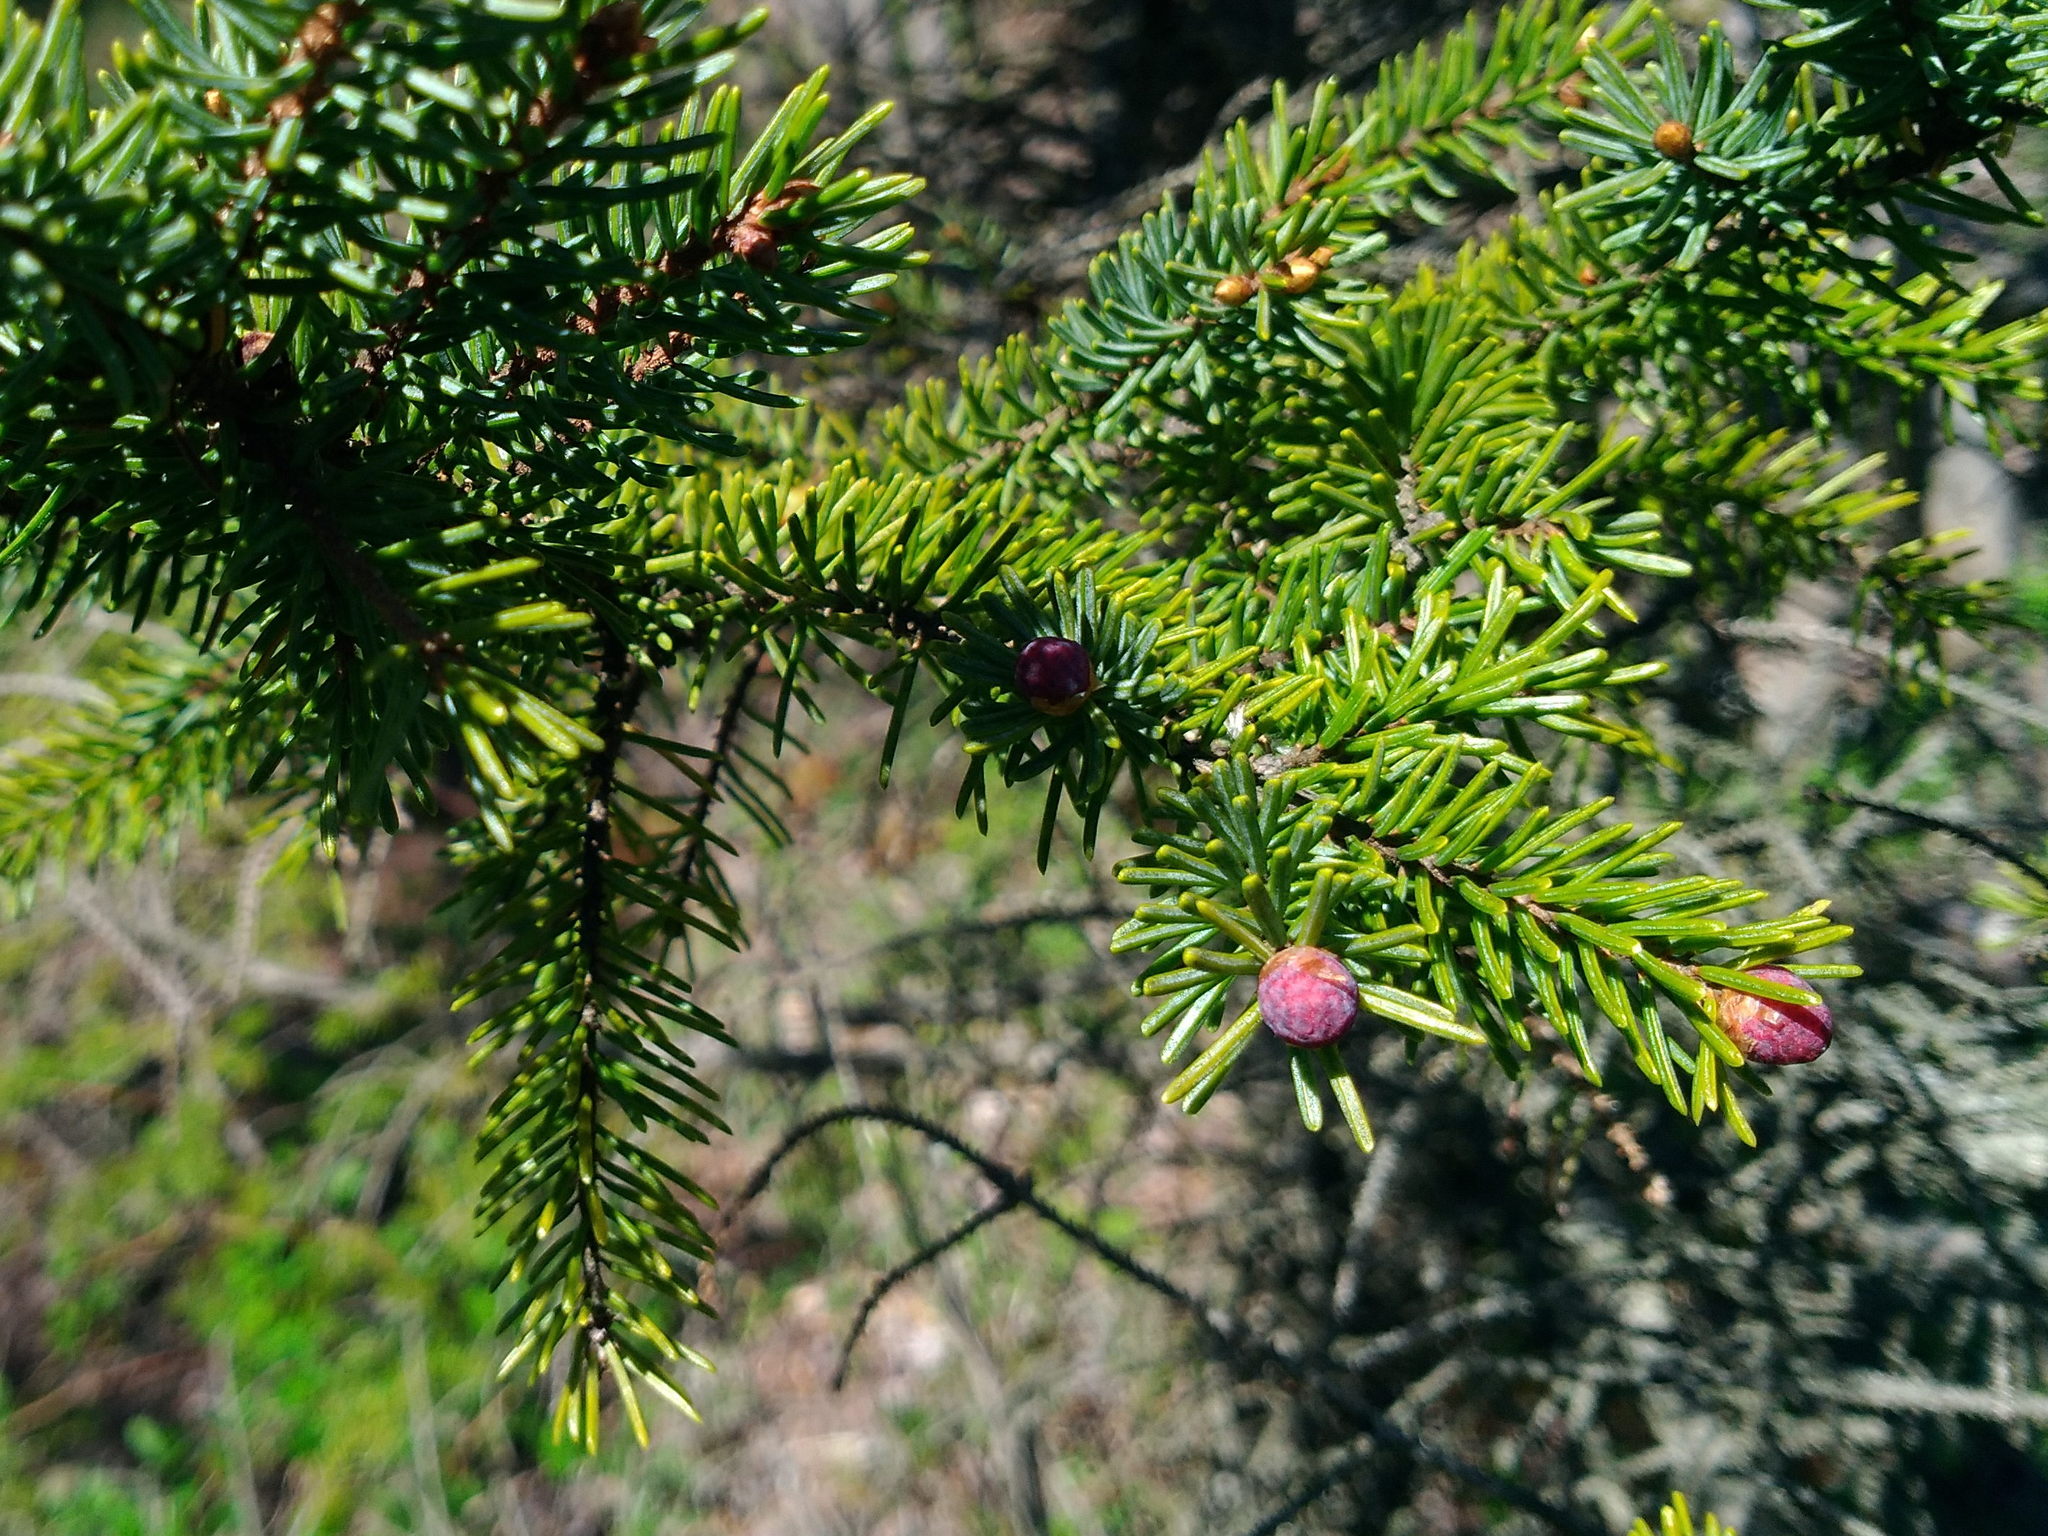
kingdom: Plantae
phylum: Tracheophyta
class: Pinopsida
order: Pinales
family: Pinaceae
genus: Picea
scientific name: Picea mariana
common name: Black spruce
